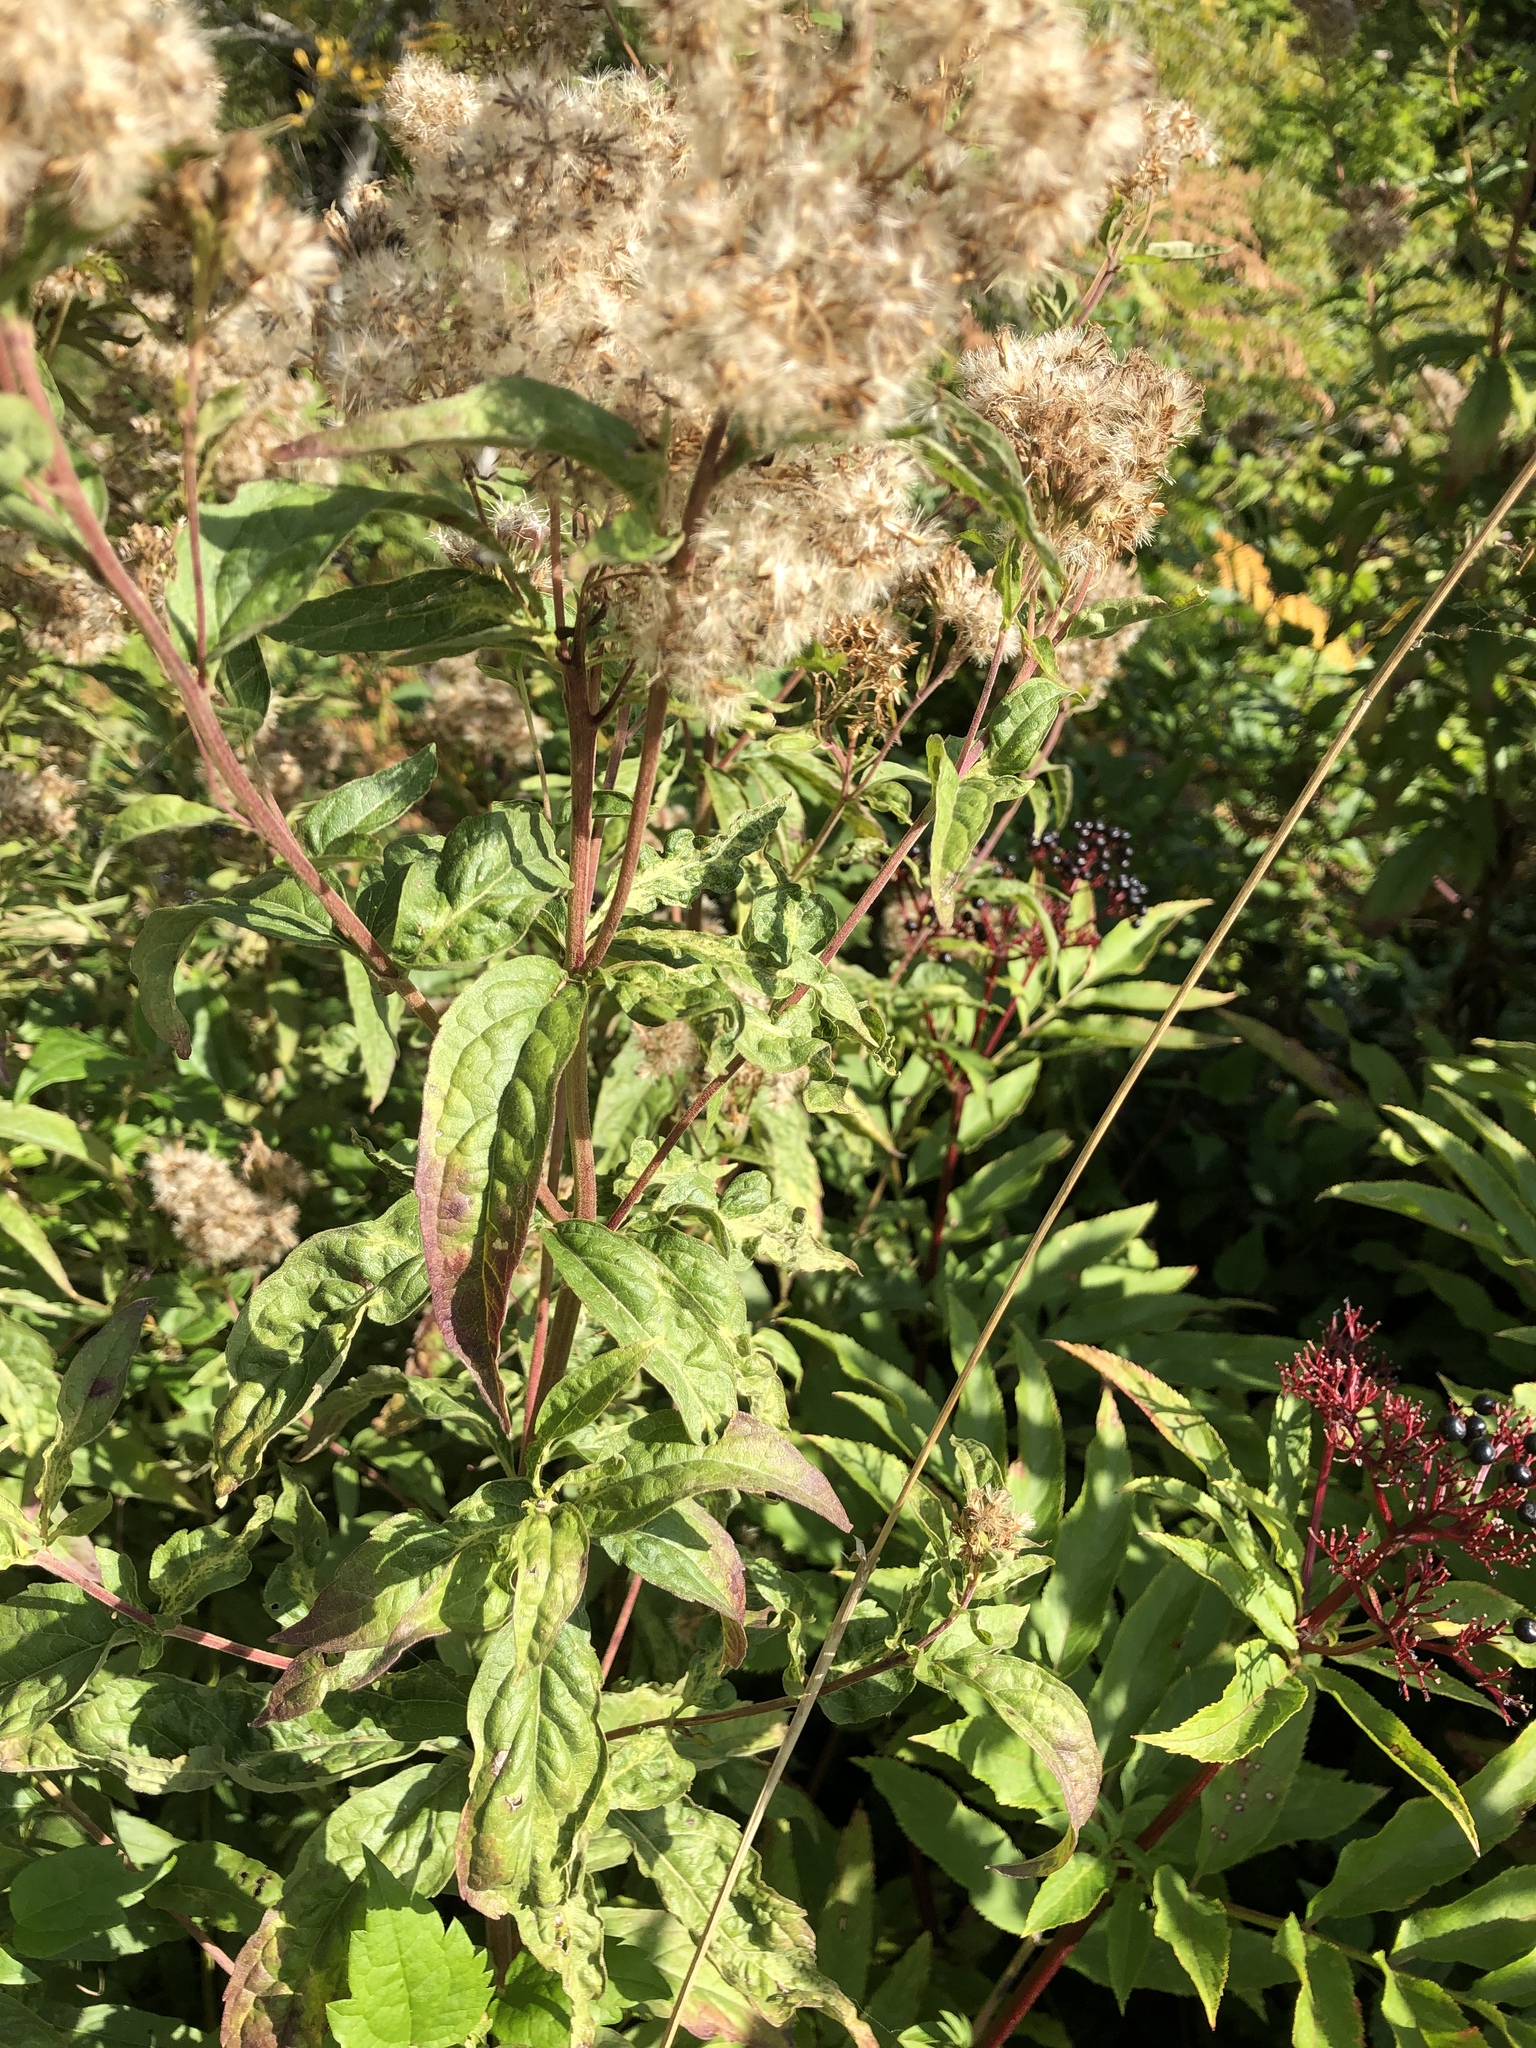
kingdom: Plantae
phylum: Tracheophyta
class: Magnoliopsida
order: Asterales
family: Asteraceae
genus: Eupatorium
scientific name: Eupatorium cannabinum
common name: Hemp-agrimony
